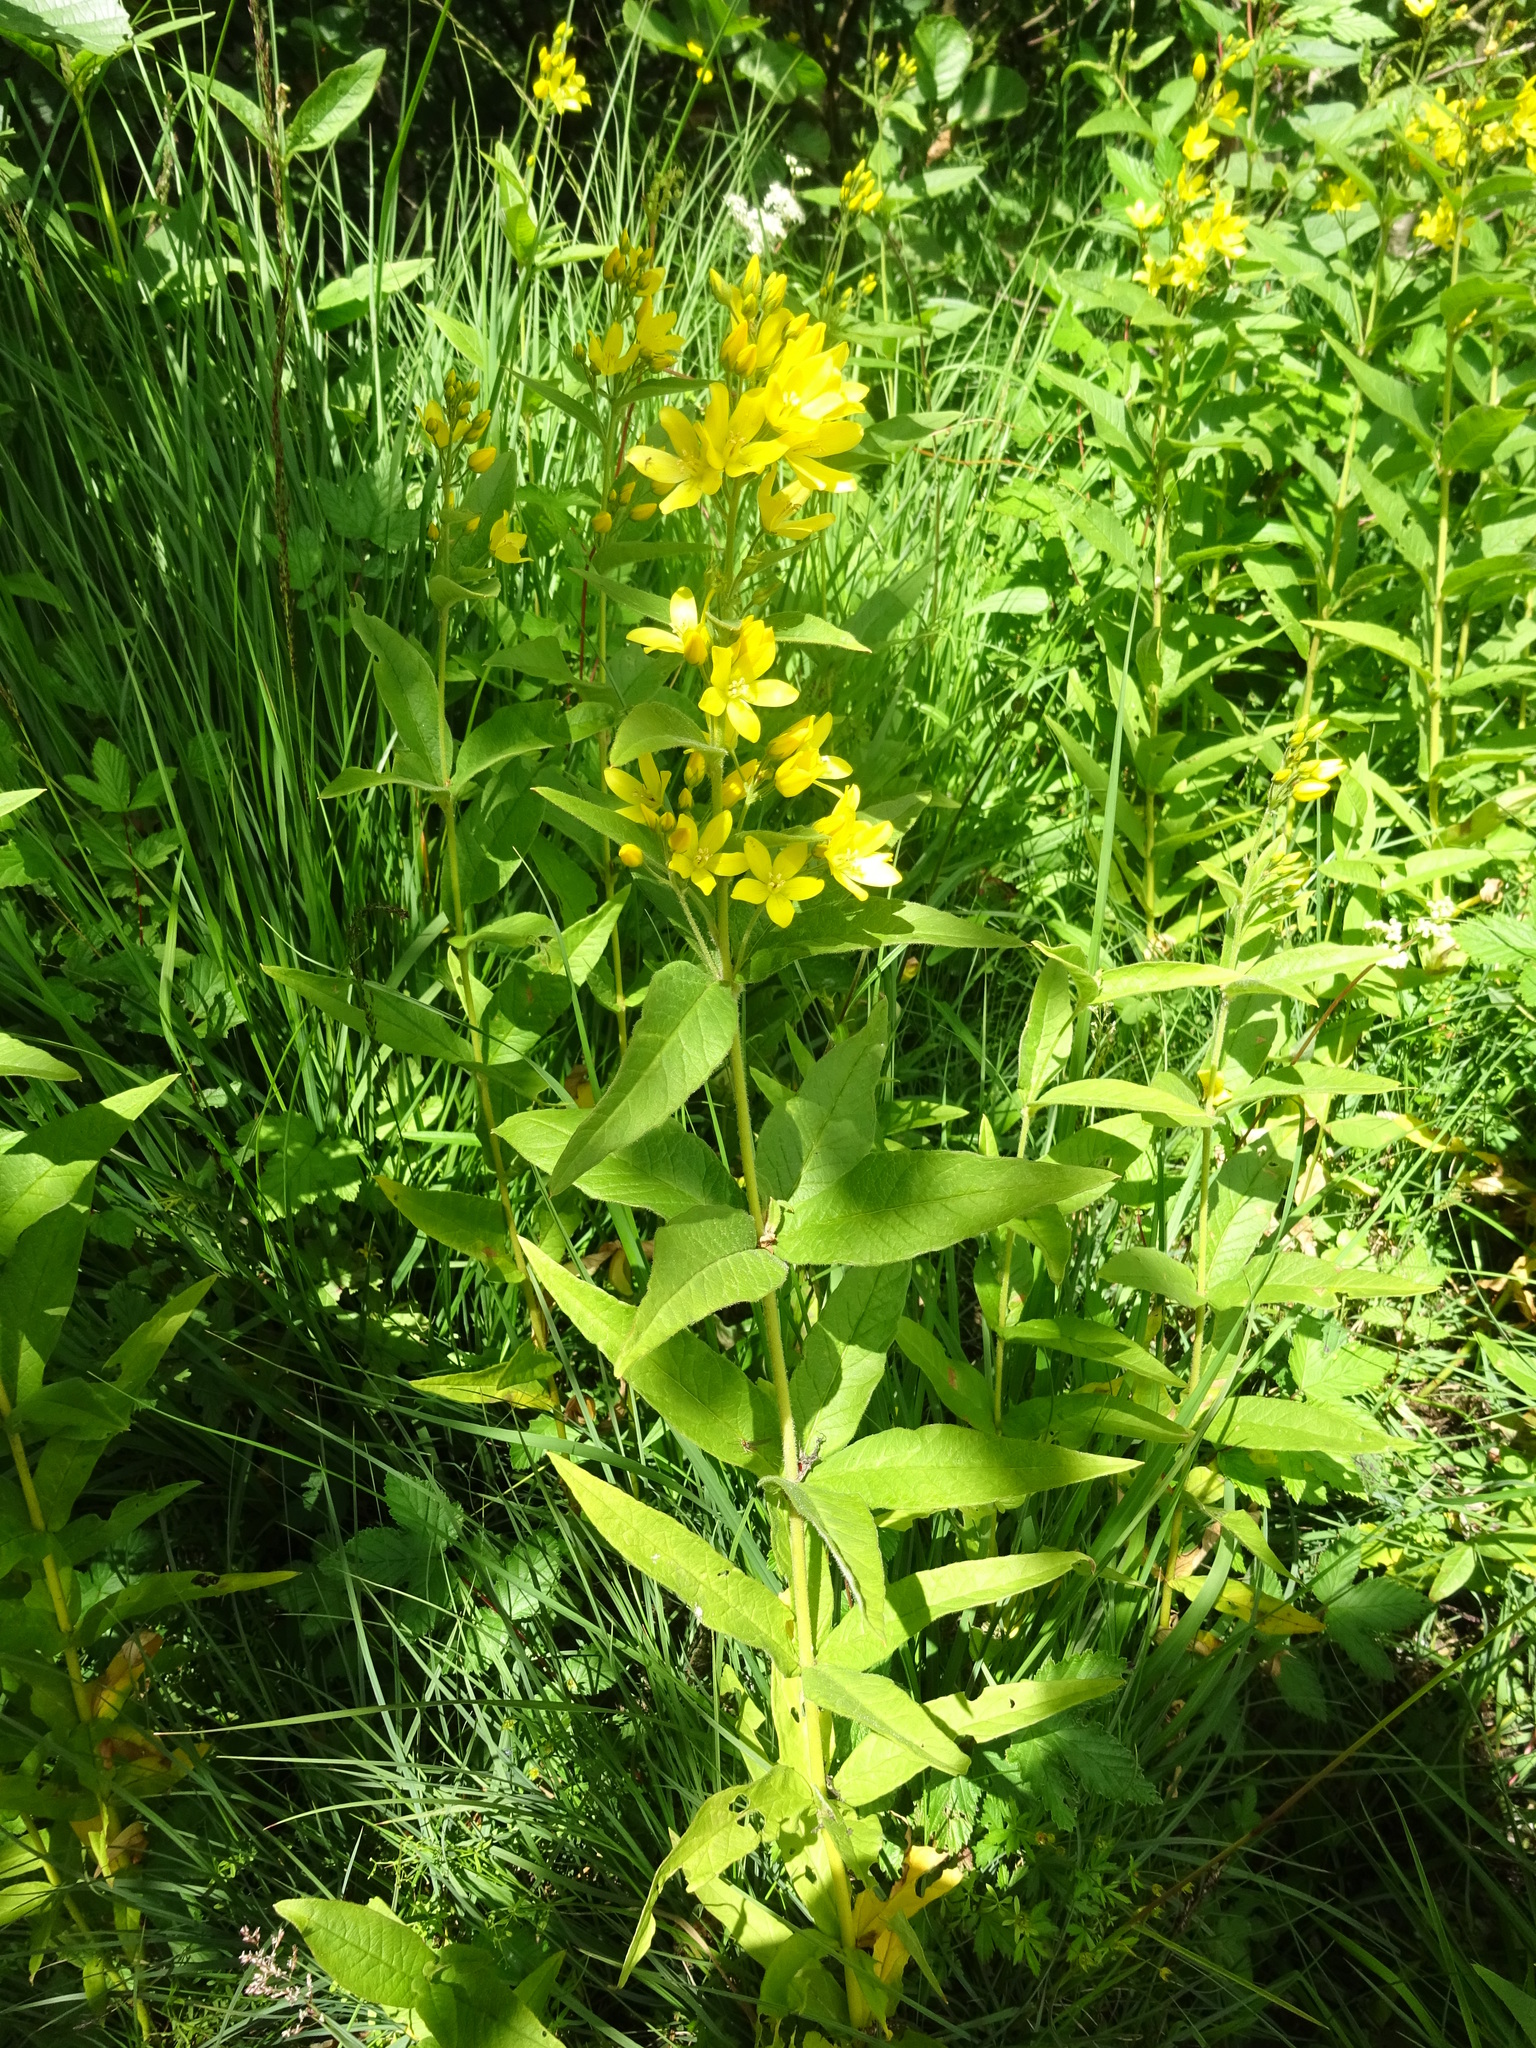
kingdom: Plantae
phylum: Tracheophyta
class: Magnoliopsida
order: Ericales
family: Primulaceae
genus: Lysimachia
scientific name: Lysimachia vulgaris
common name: Yellow loosestrife
